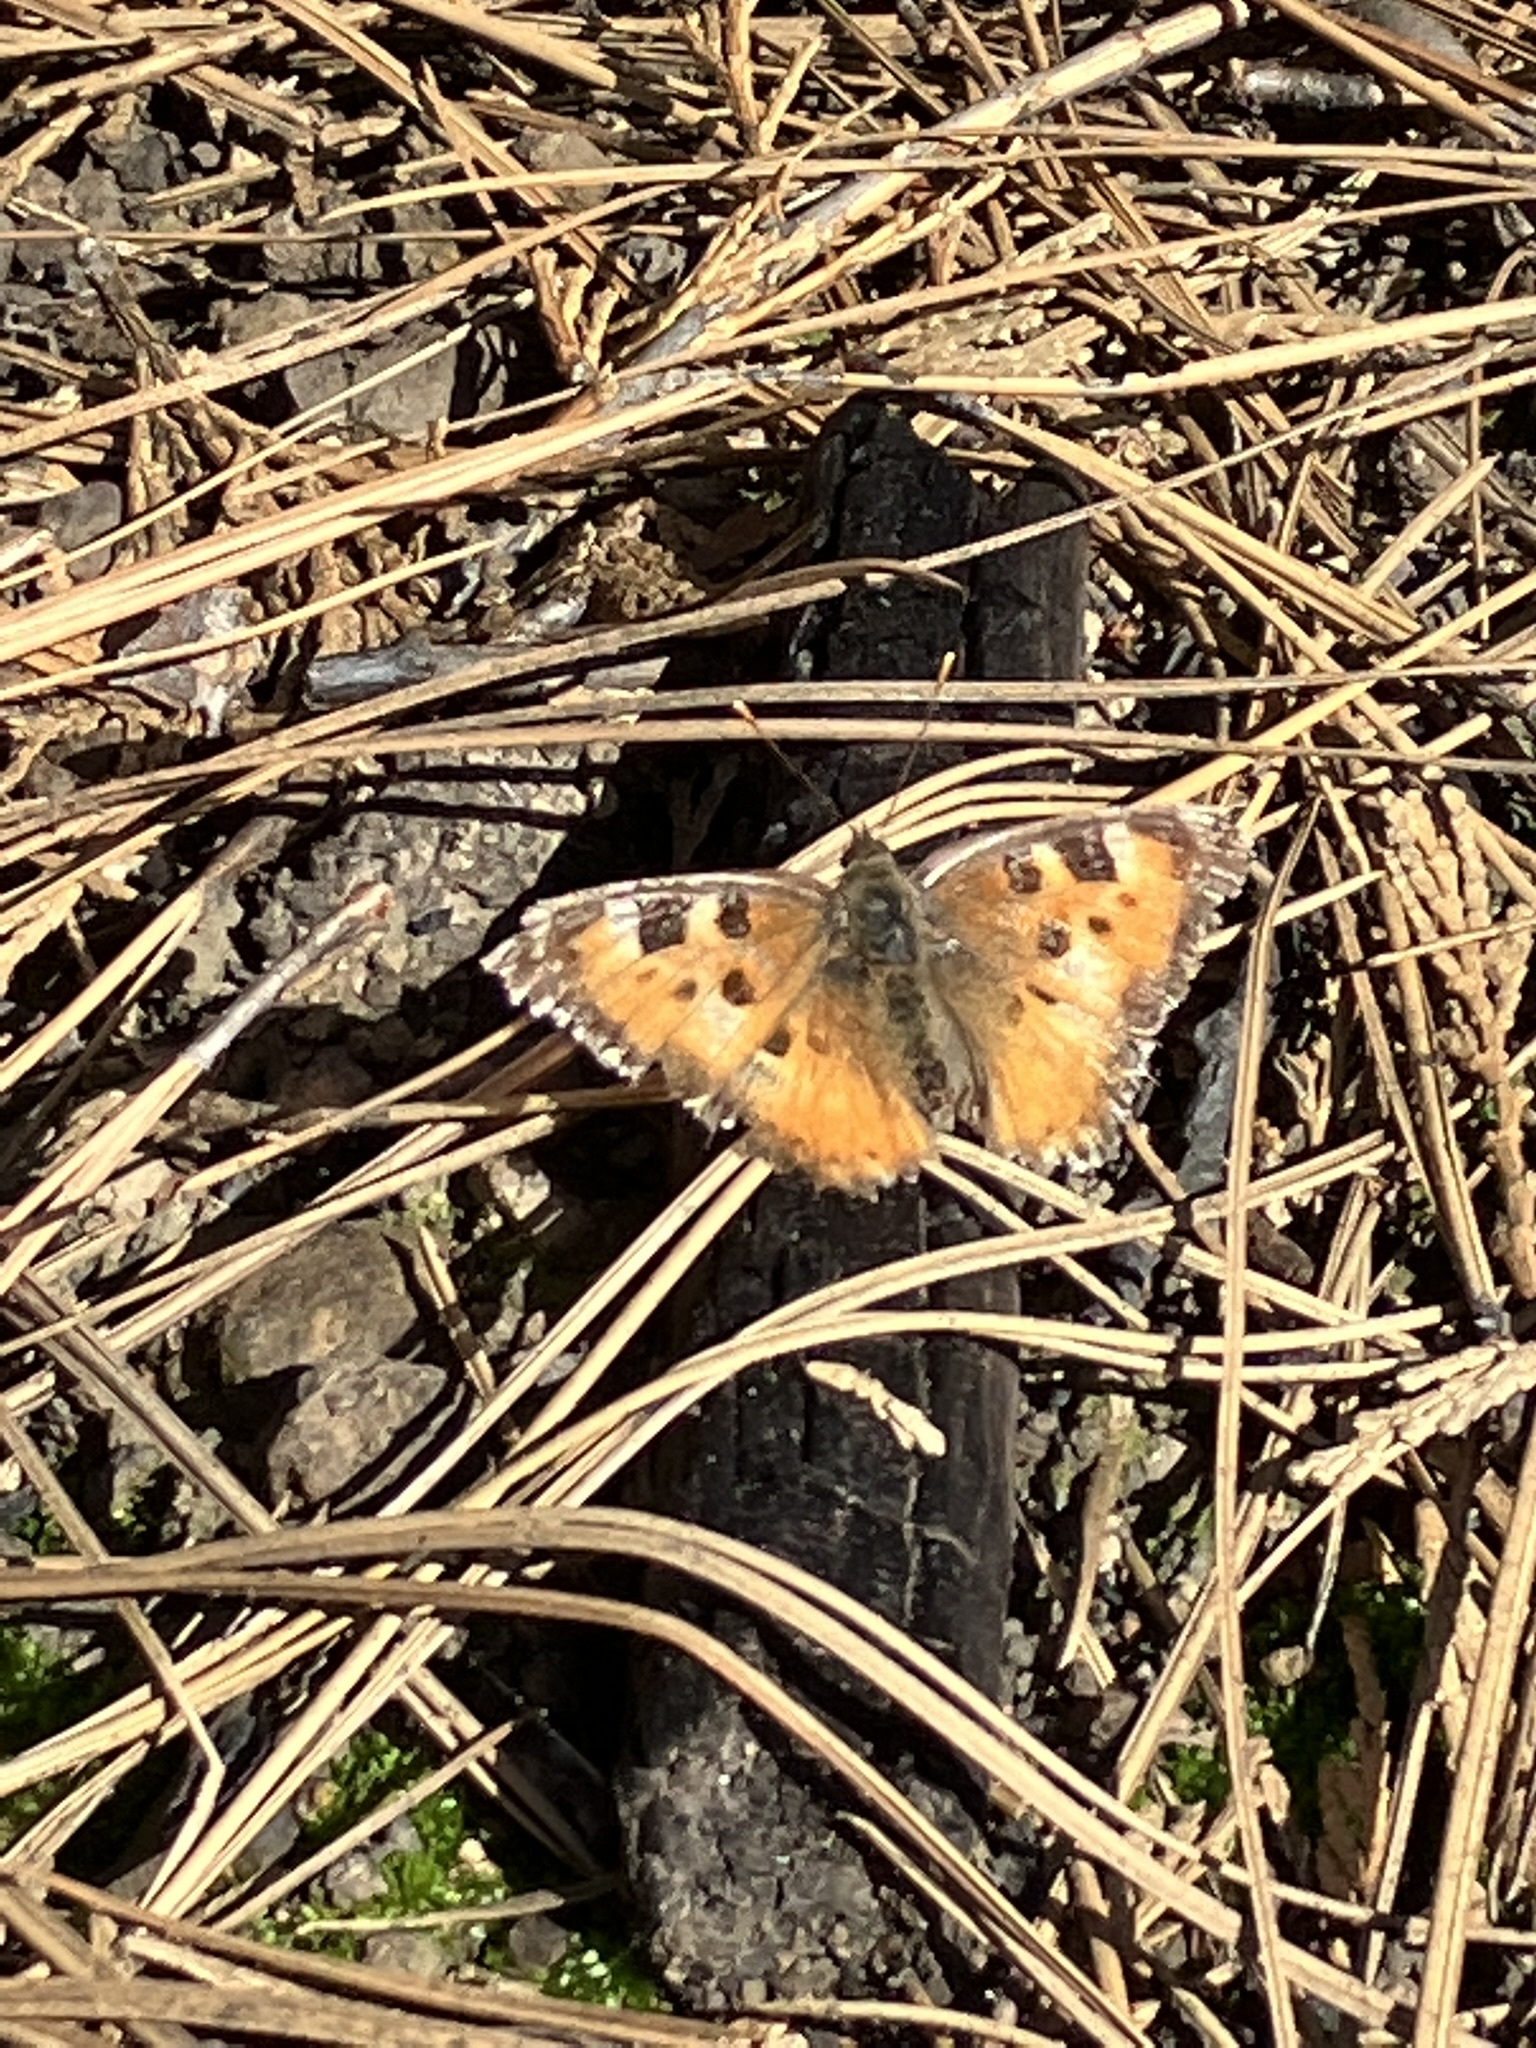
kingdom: Animalia
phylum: Arthropoda
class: Insecta
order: Lepidoptera
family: Nymphalidae
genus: Nymphalis
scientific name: Nymphalis californica
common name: California tortoiseshell
